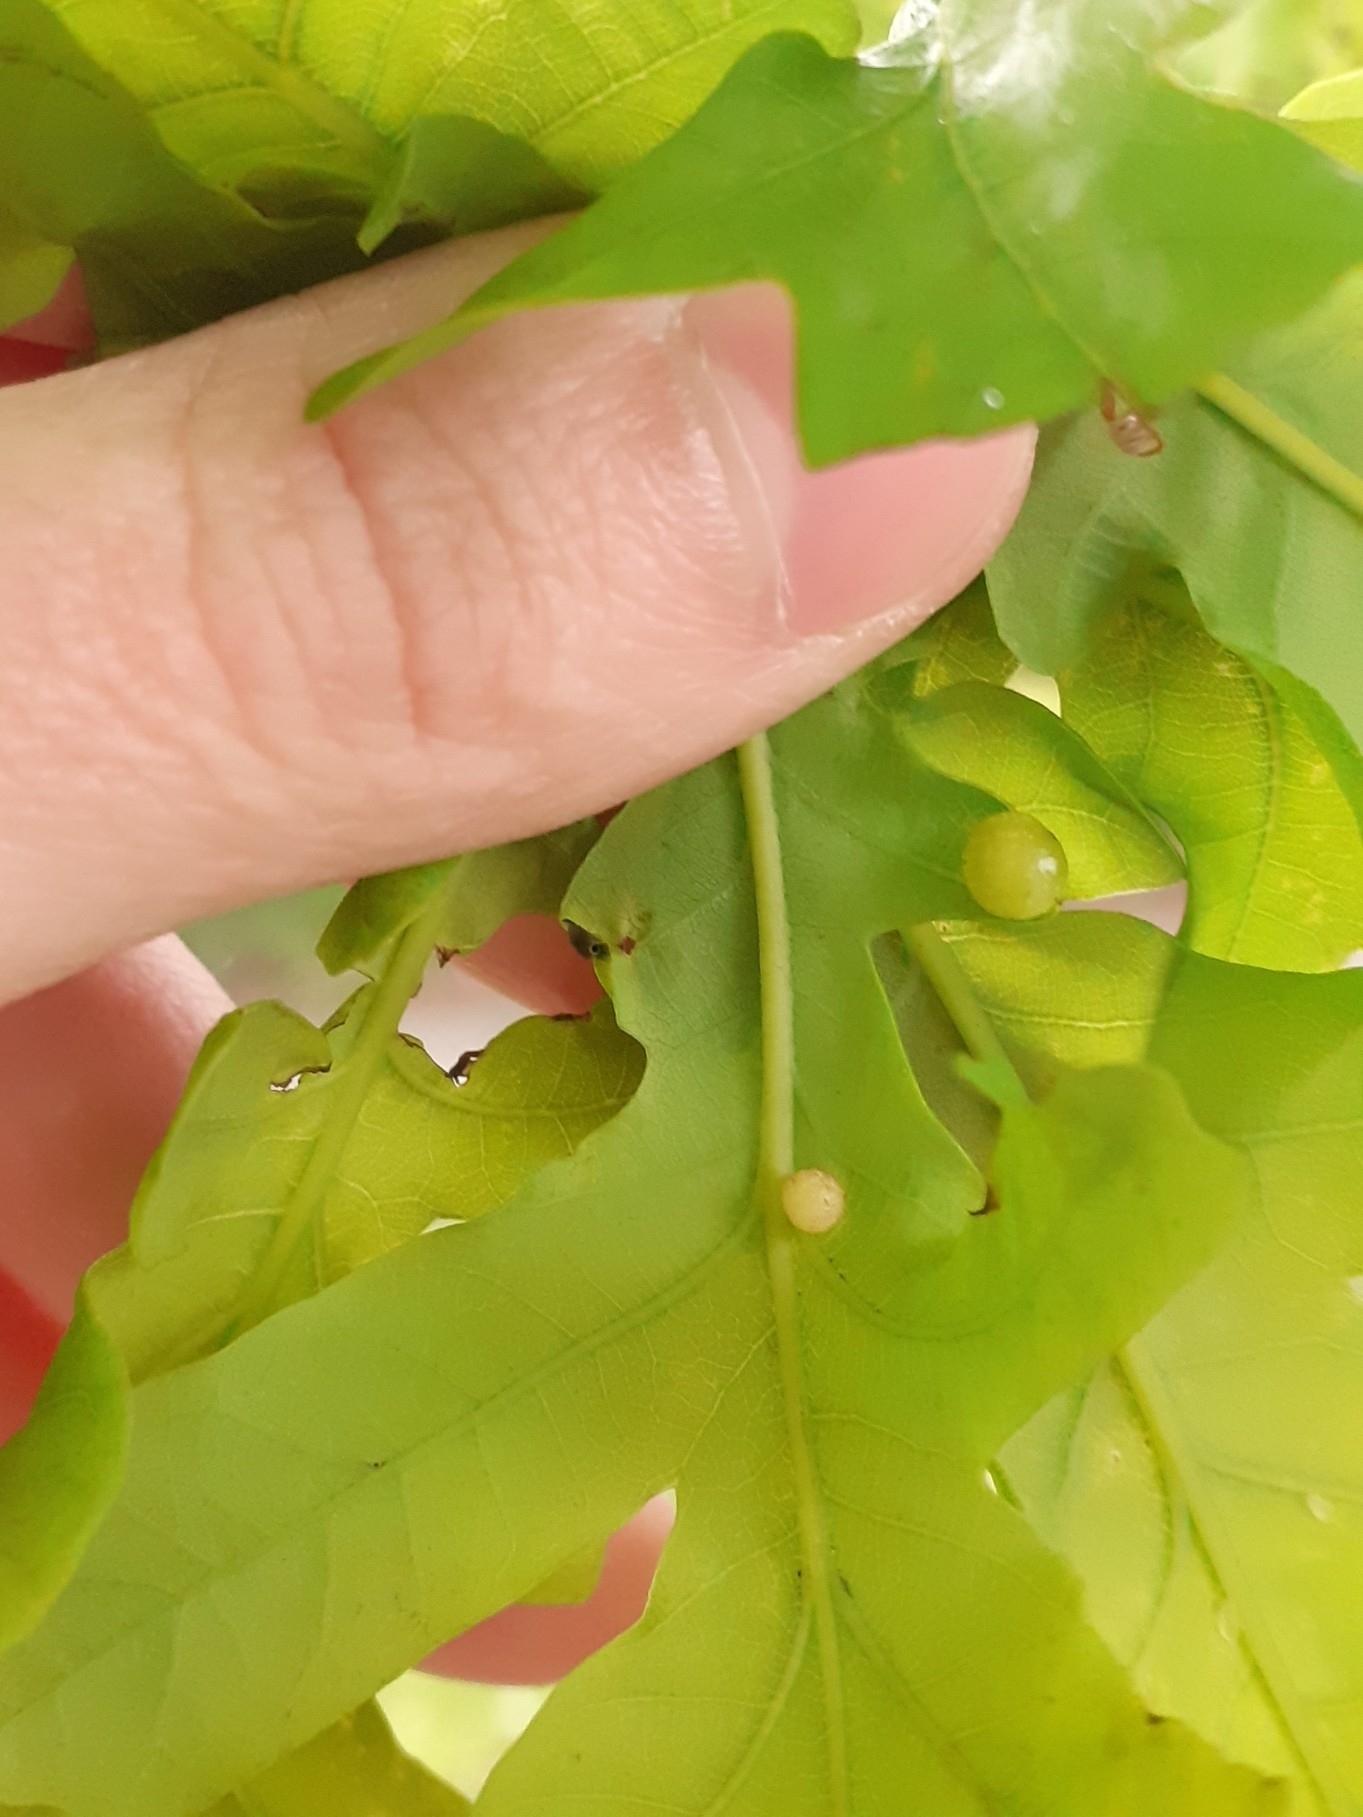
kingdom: Animalia
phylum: Arthropoda
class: Insecta
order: Hymenoptera
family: Cynipidae
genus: Neuroterus
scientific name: Neuroterus quercusbaccarum
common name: Common spangle gall
